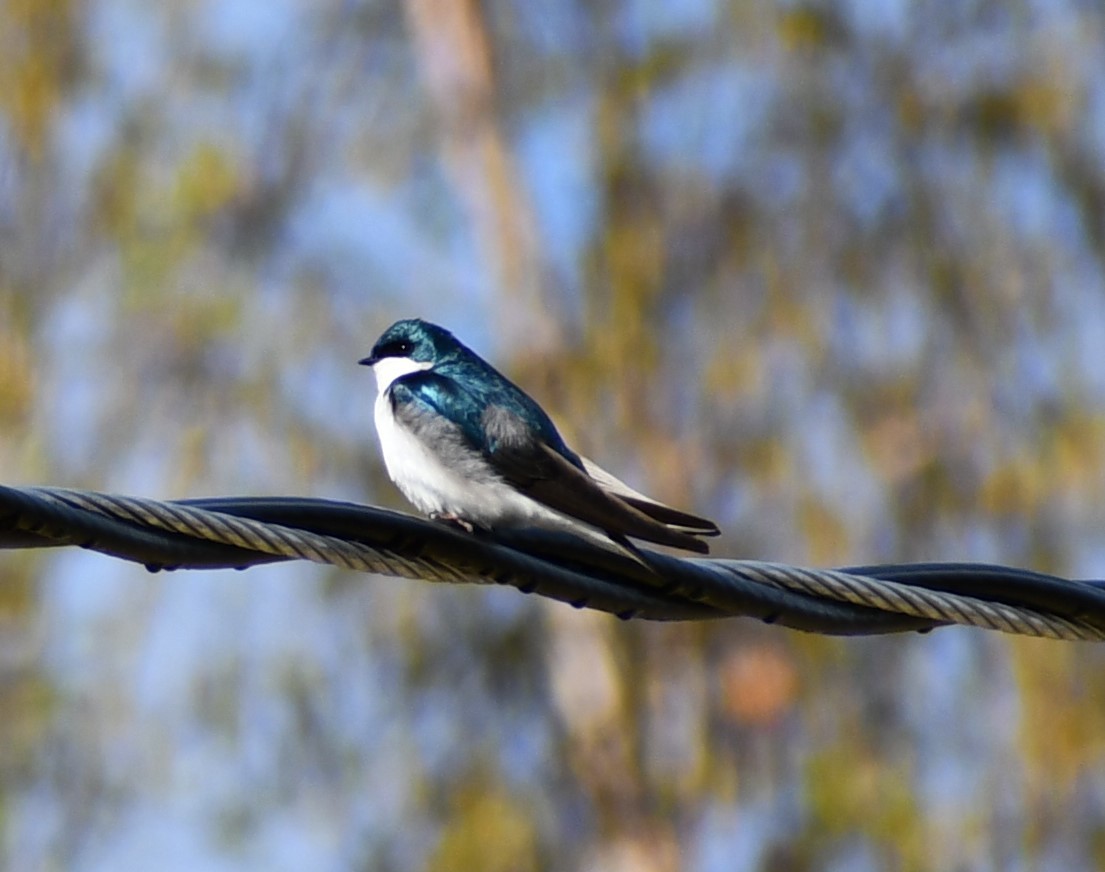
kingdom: Animalia
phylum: Chordata
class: Aves
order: Passeriformes
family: Hirundinidae
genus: Tachycineta
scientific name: Tachycineta bicolor
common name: Tree swallow
